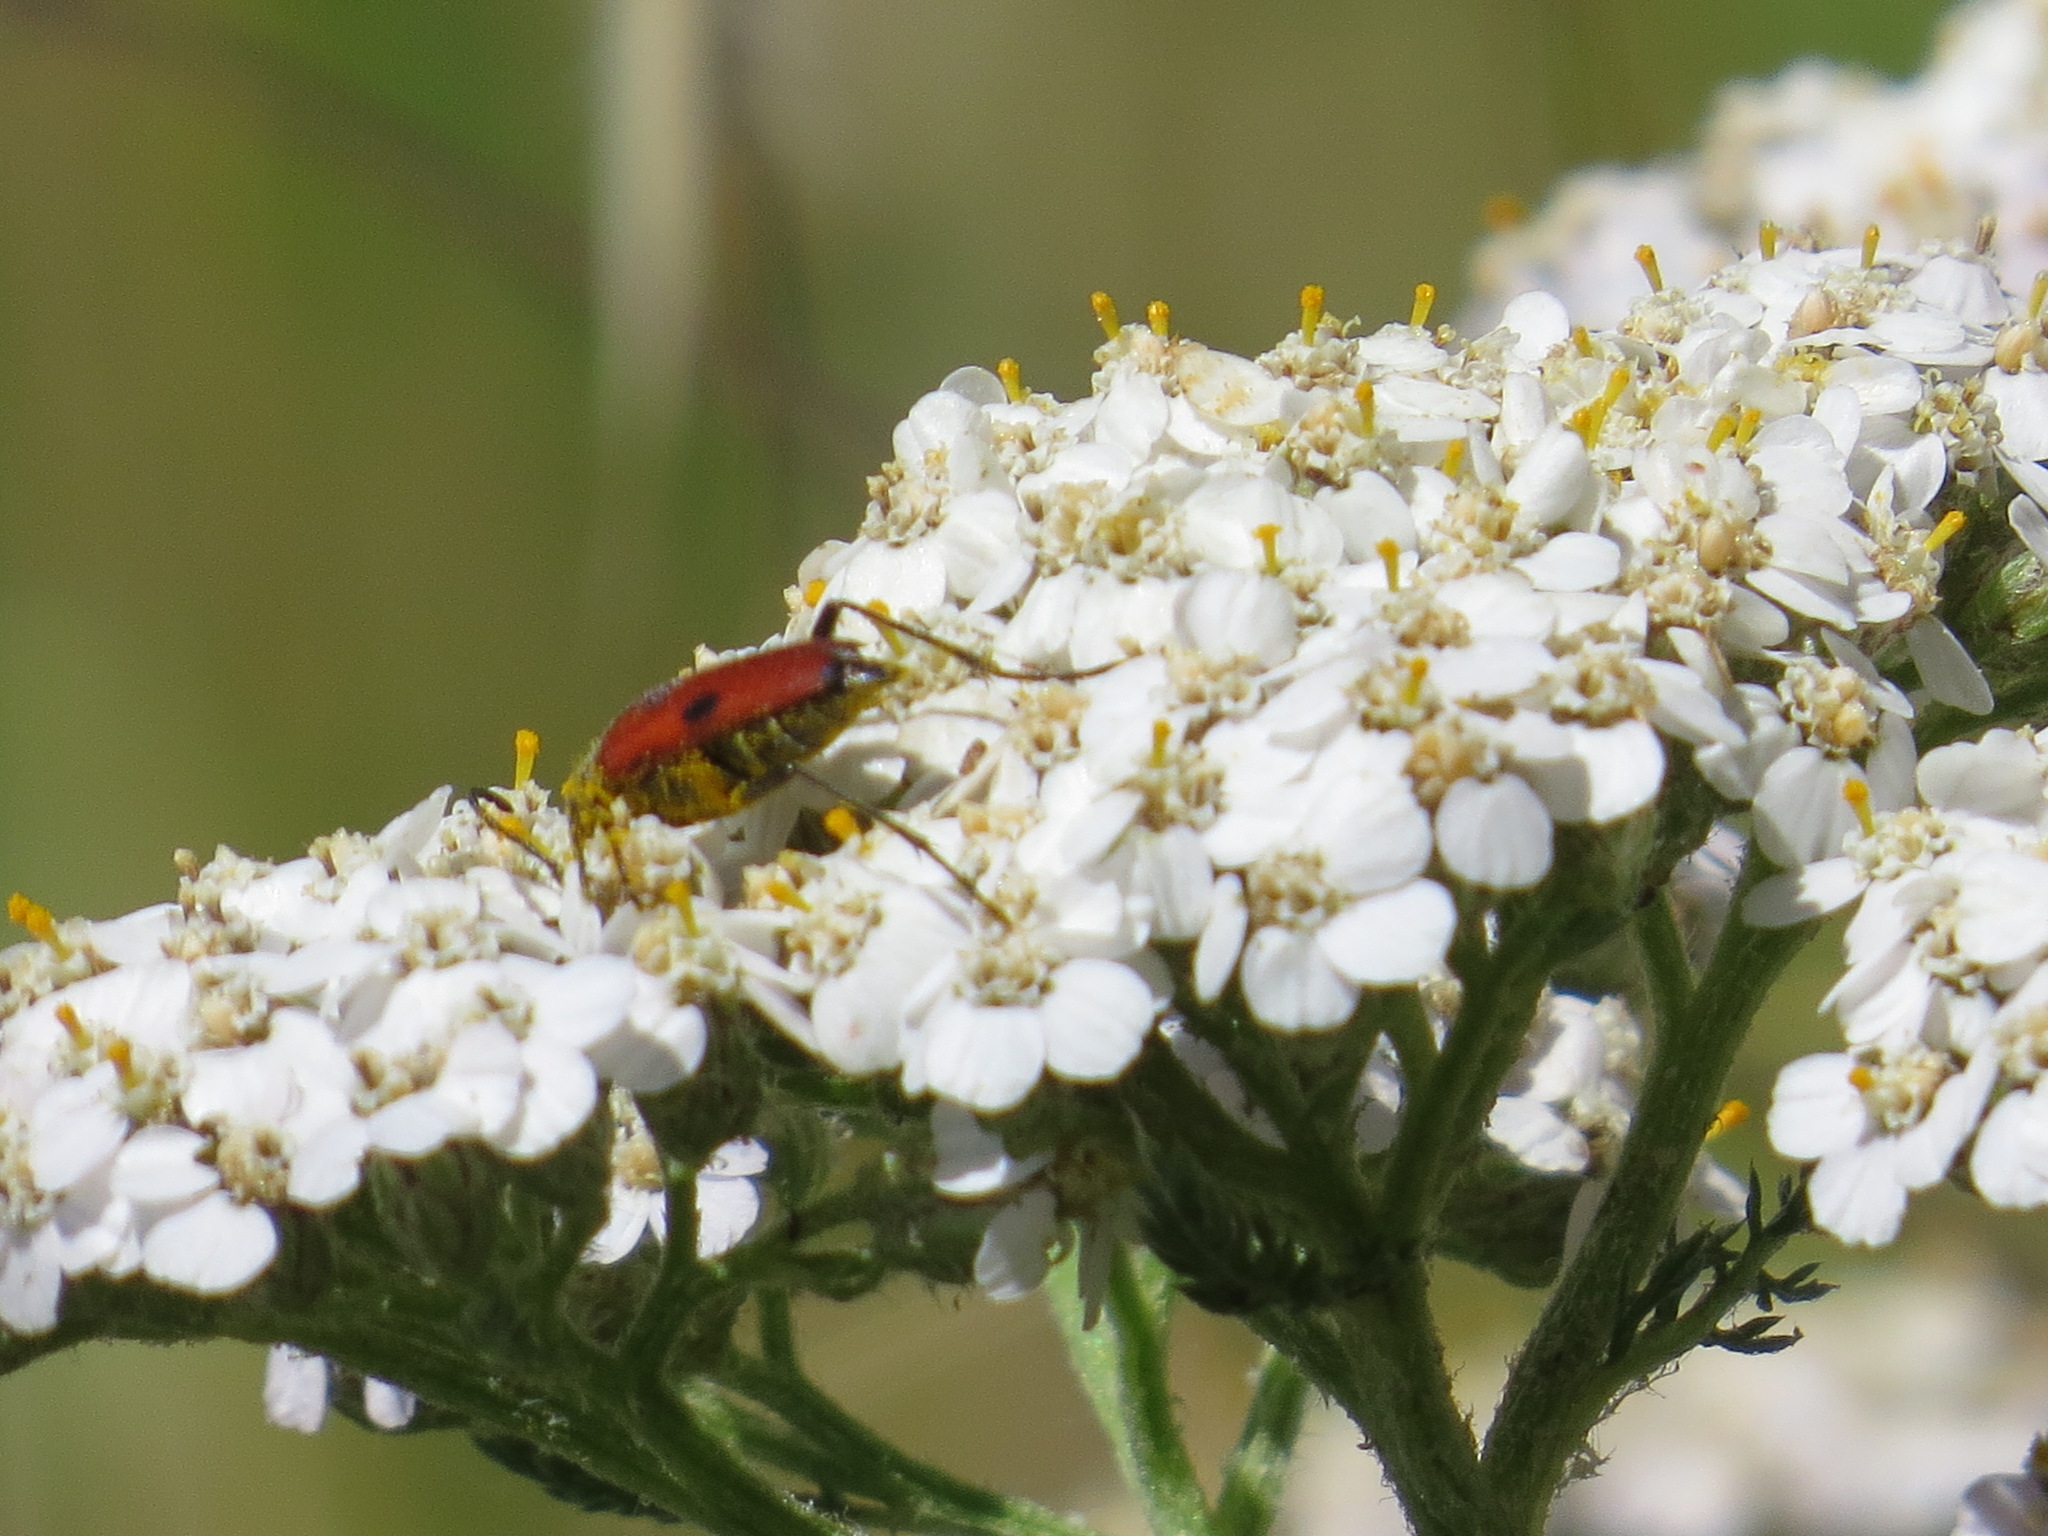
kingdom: Animalia
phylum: Arthropoda
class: Insecta
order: Coleoptera
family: Cerambycidae
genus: Anastrangalia
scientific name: Anastrangalia laetifica
